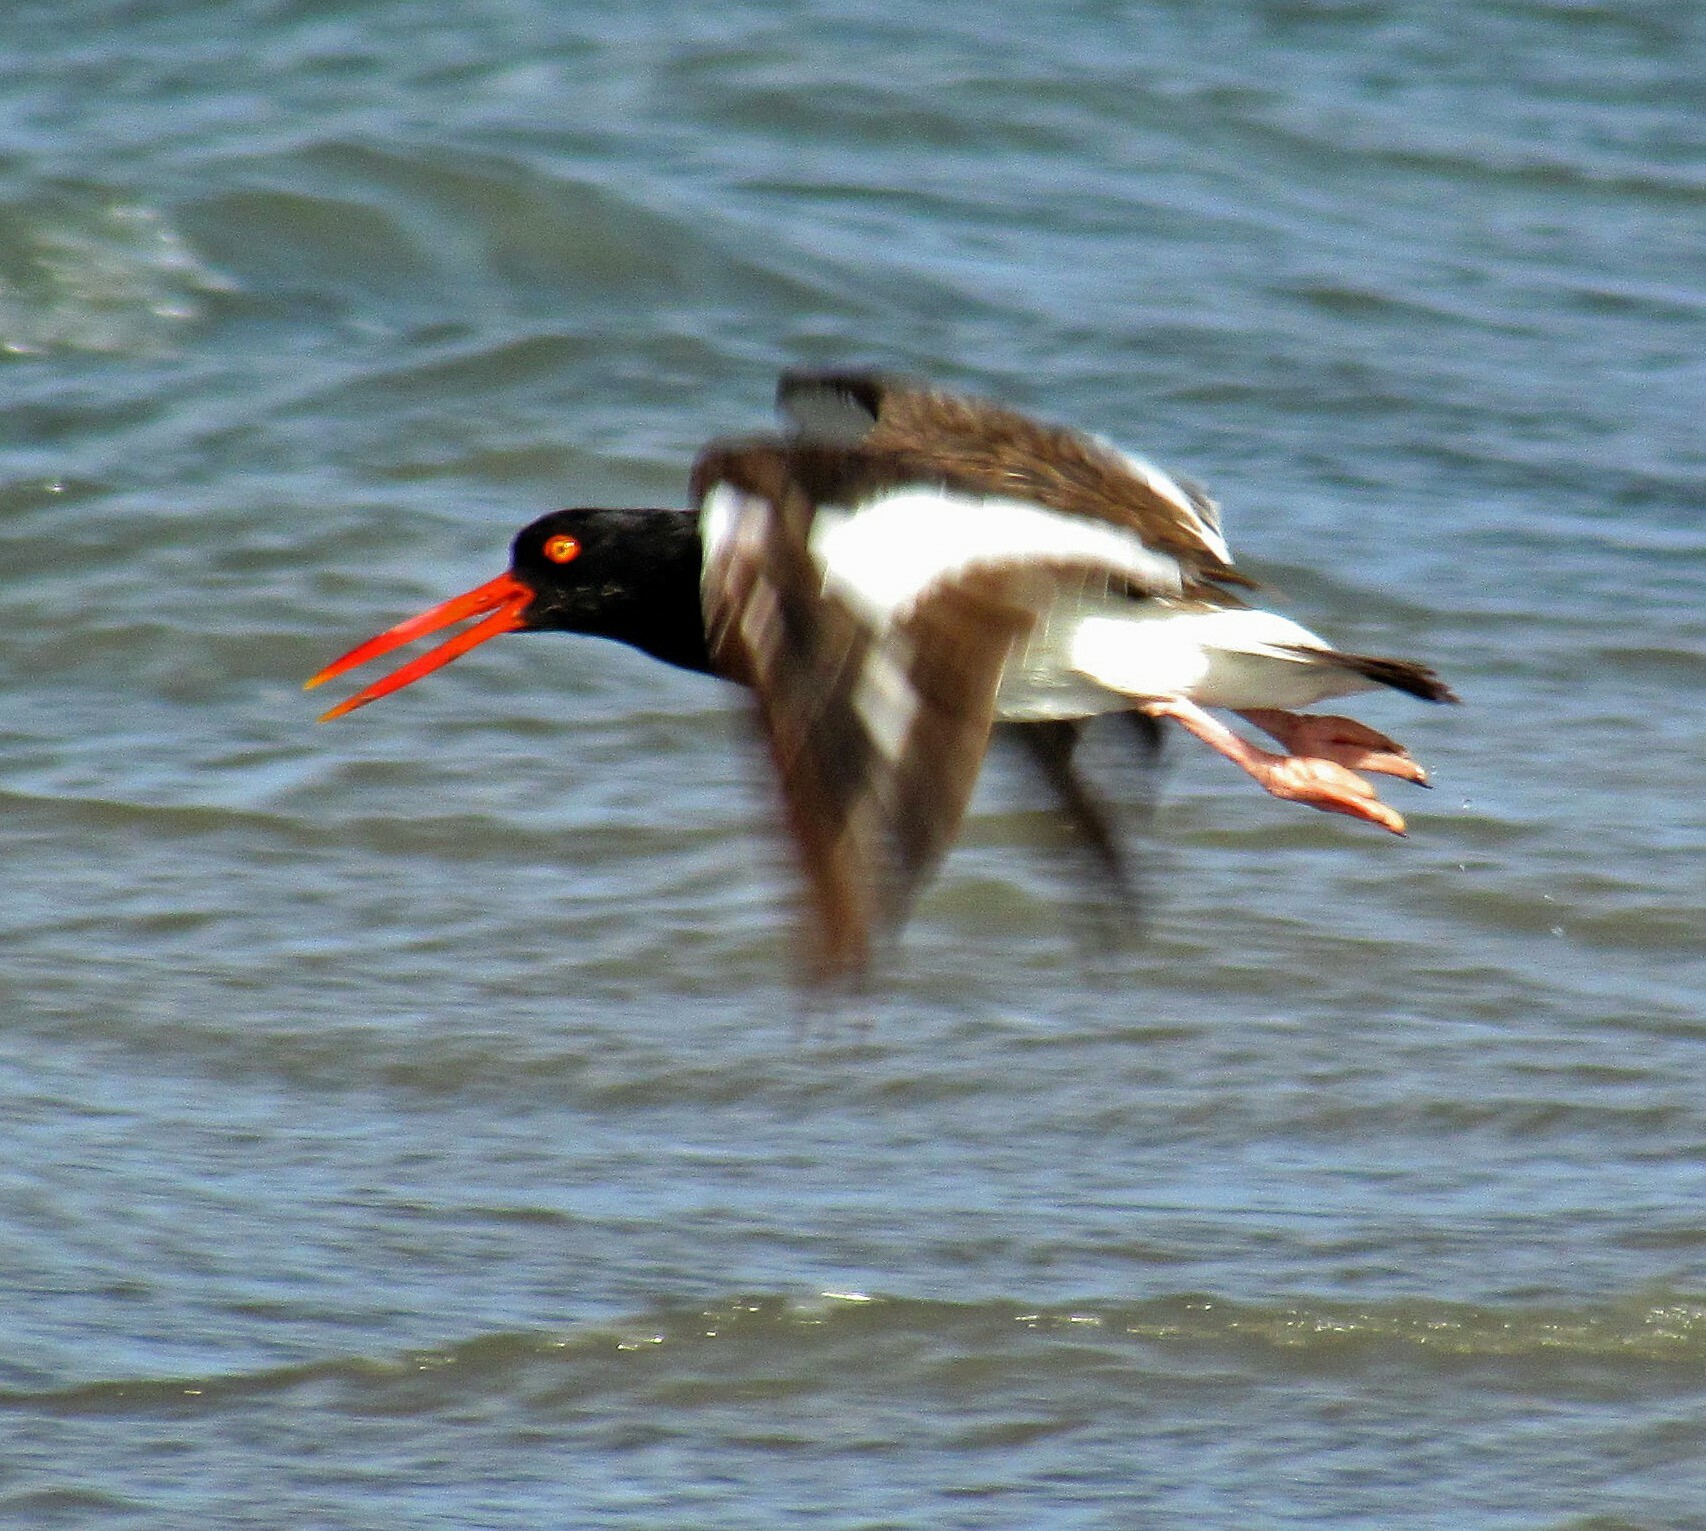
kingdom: Animalia
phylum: Chordata
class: Aves
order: Charadriiformes
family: Haematopodidae
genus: Haematopus
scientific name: Haematopus palliatus
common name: American oystercatcher
